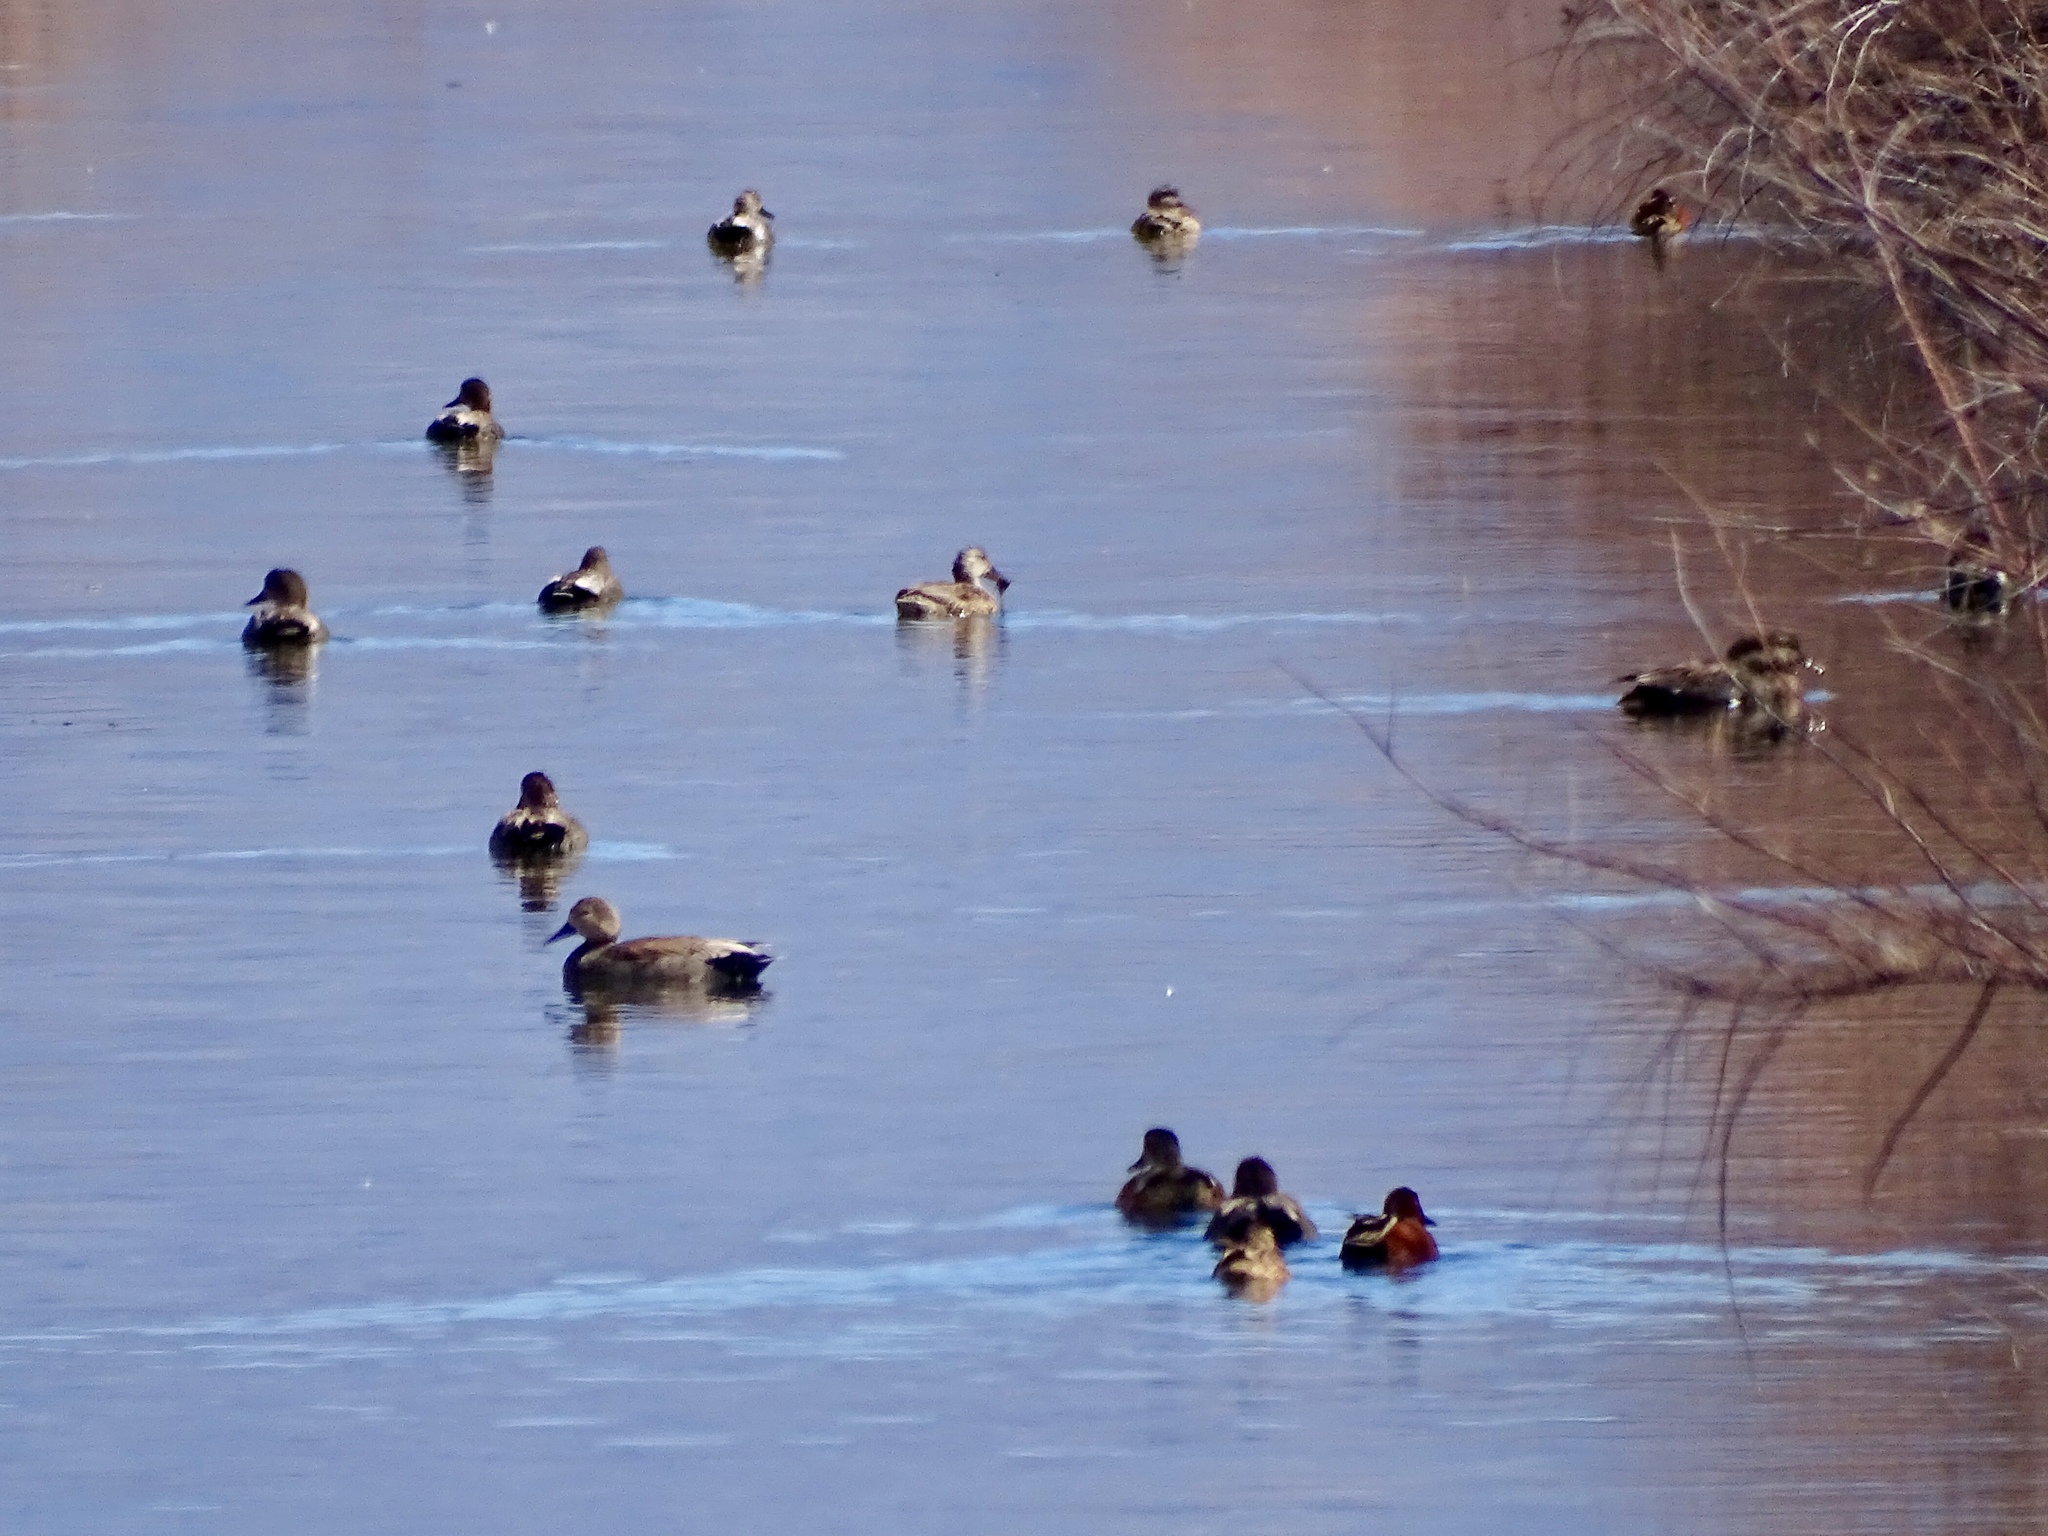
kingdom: Animalia
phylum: Chordata
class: Aves
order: Anseriformes
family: Anatidae
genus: Mareca
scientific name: Mareca strepera
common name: Gadwall
